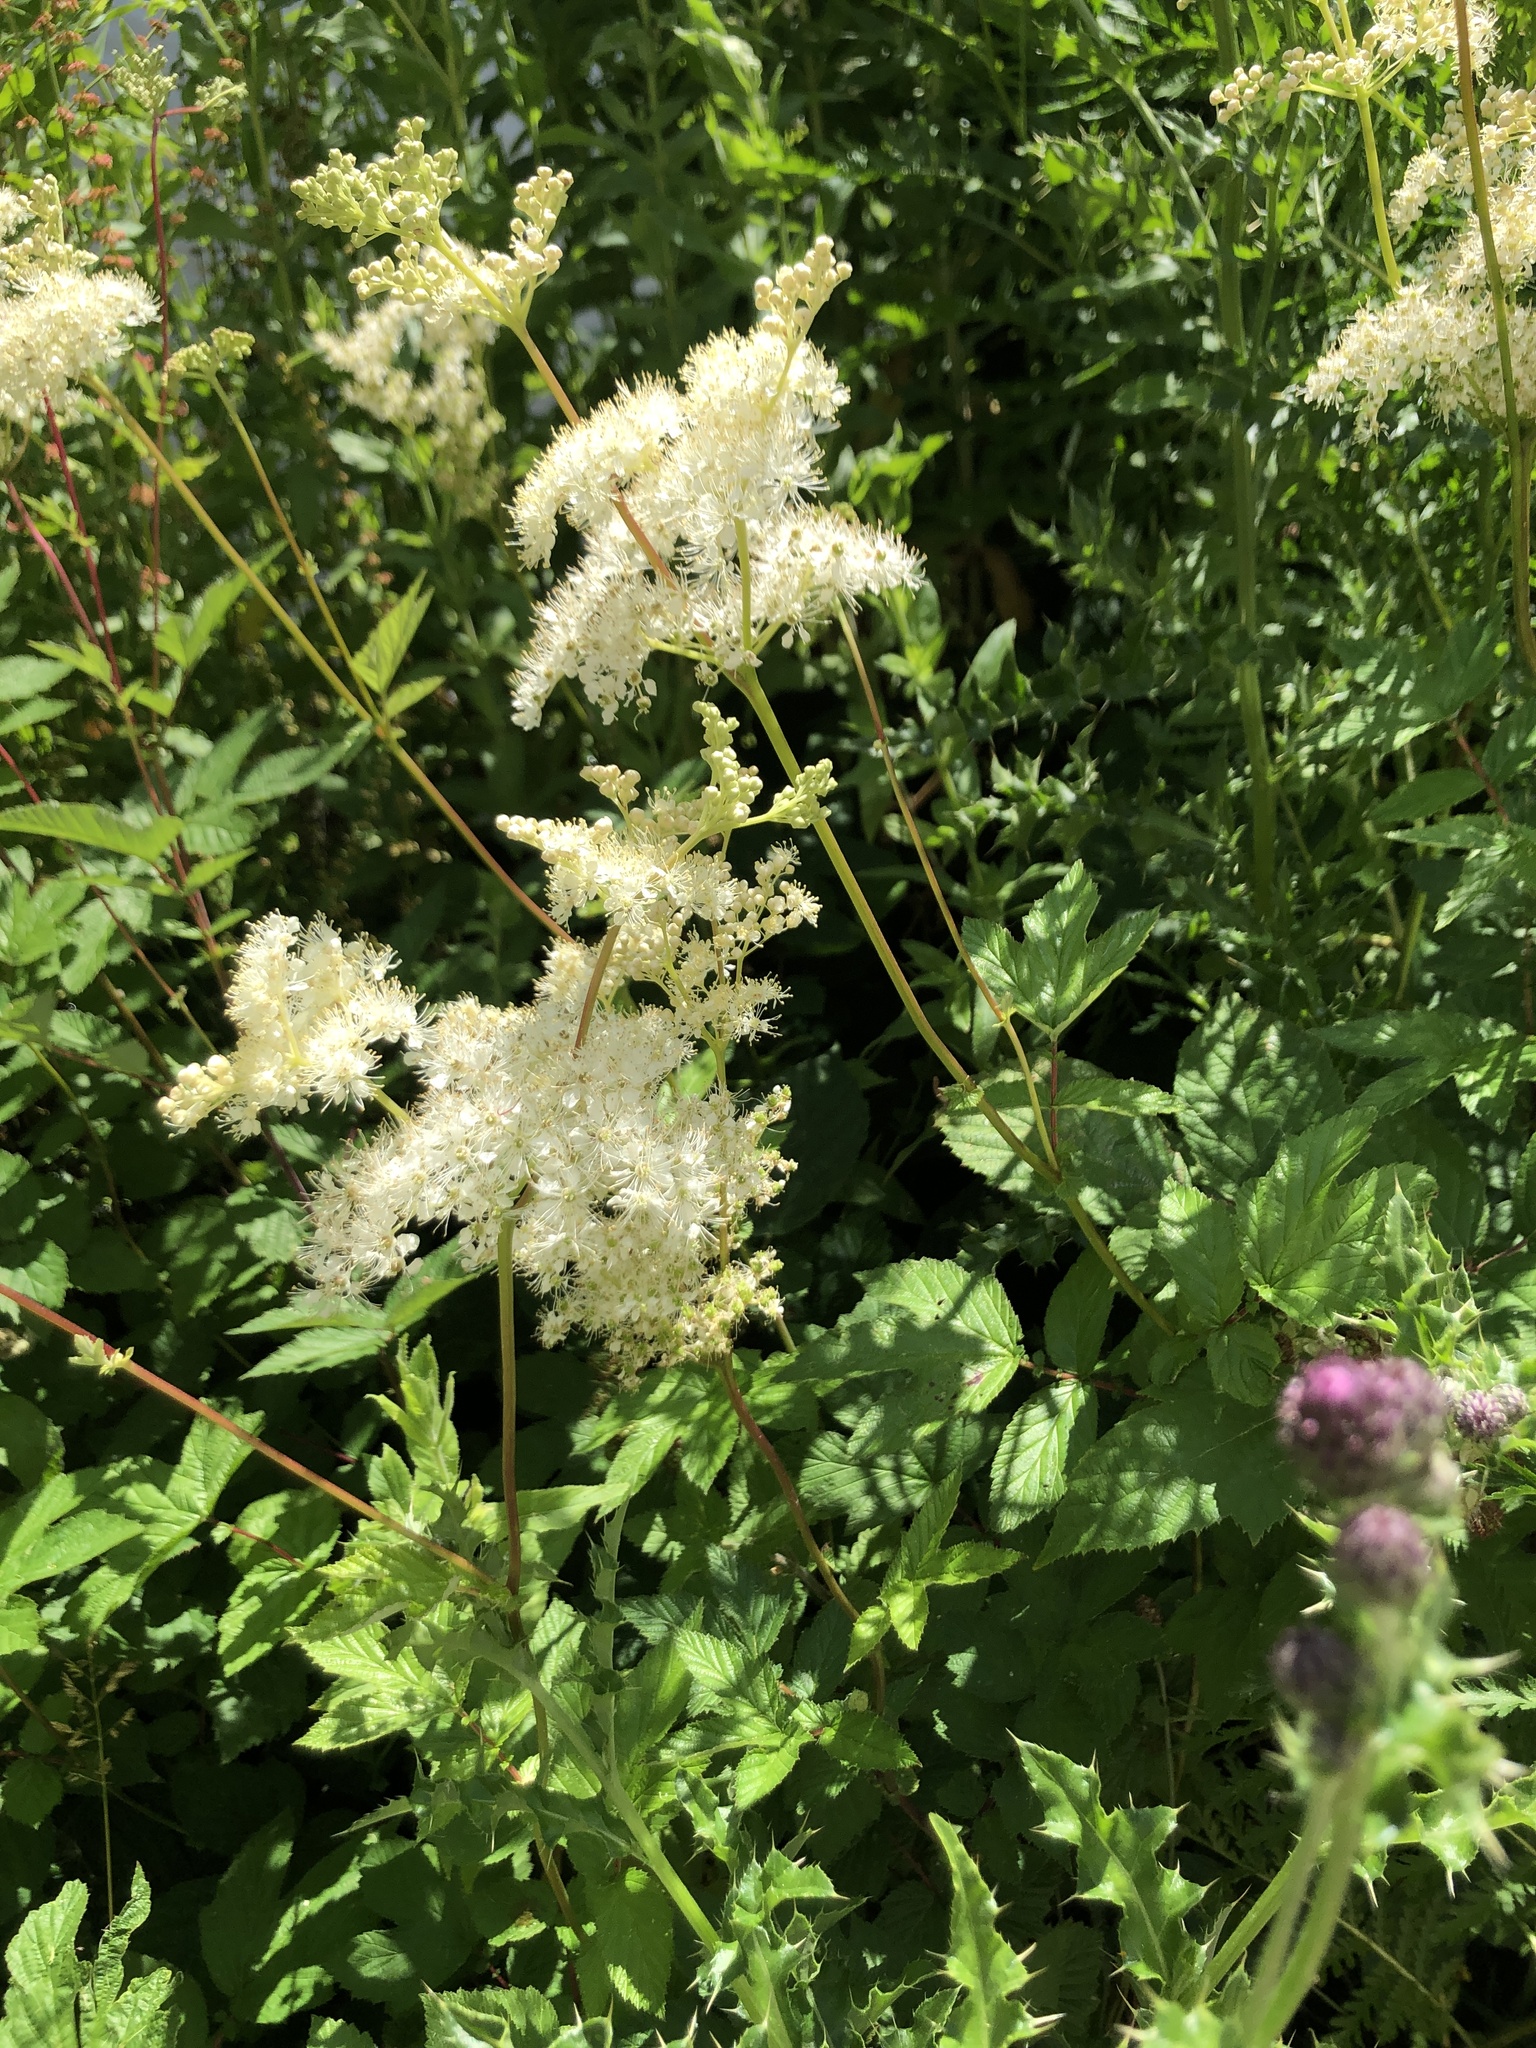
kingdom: Plantae
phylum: Tracheophyta
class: Magnoliopsida
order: Rosales
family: Rosaceae
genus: Filipendula
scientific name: Filipendula ulmaria
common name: Meadowsweet
